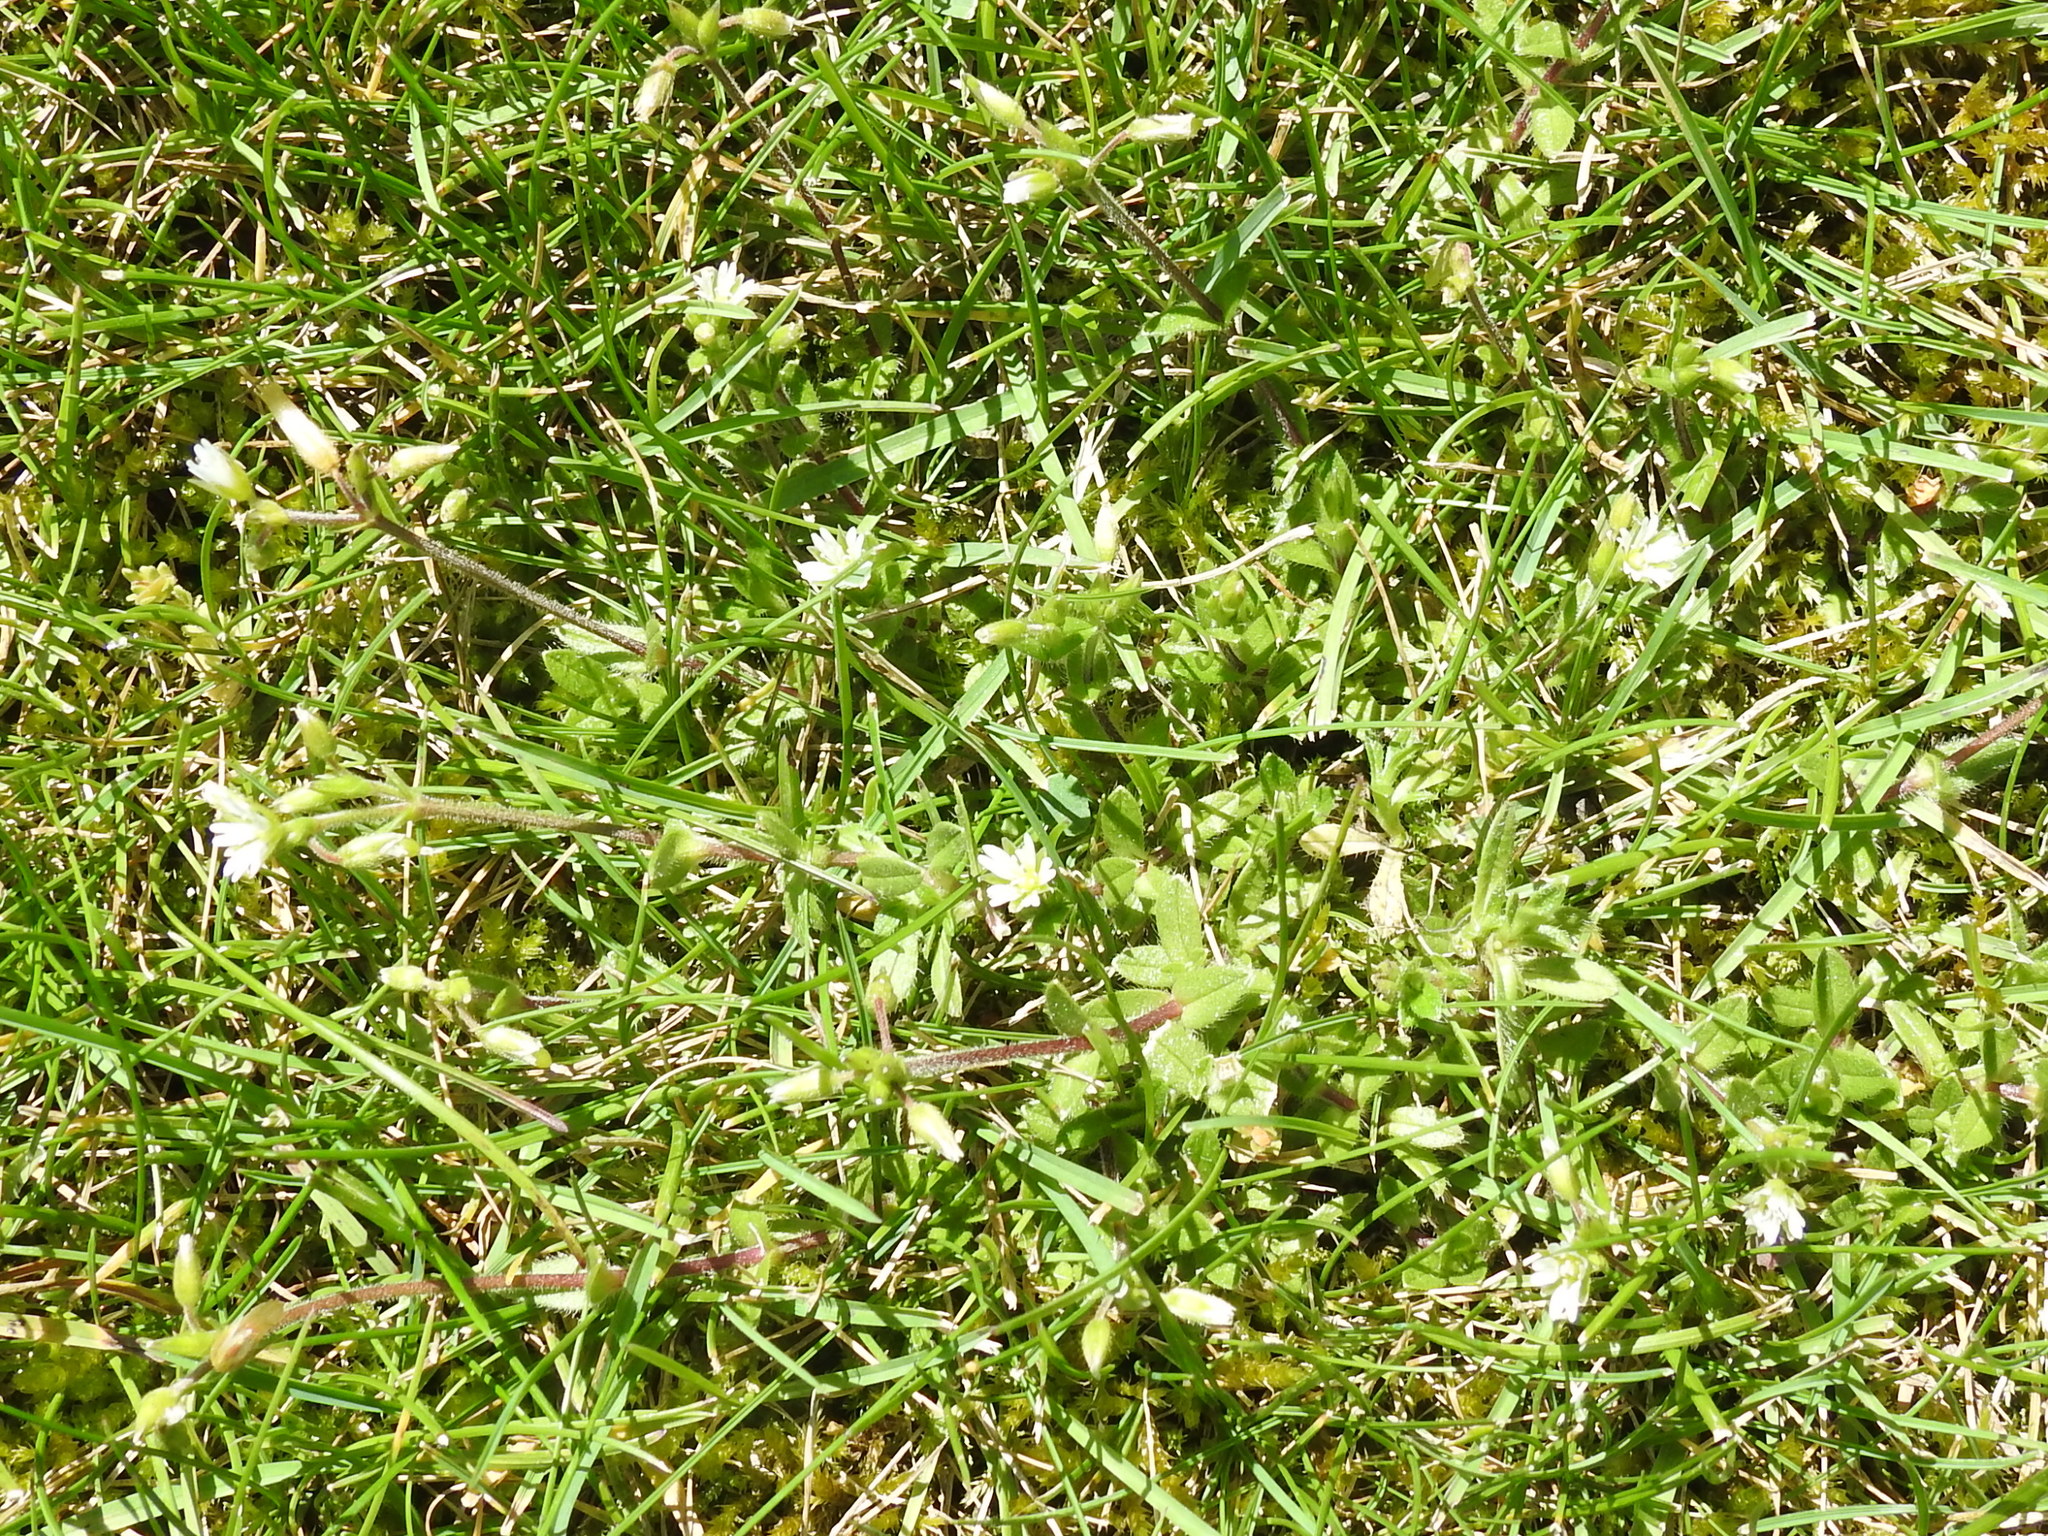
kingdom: Plantae
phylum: Tracheophyta
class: Magnoliopsida
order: Caryophyllales
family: Caryophyllaceae
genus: Cerastium
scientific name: Cerastium glomeratum
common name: Sticky chickweed
